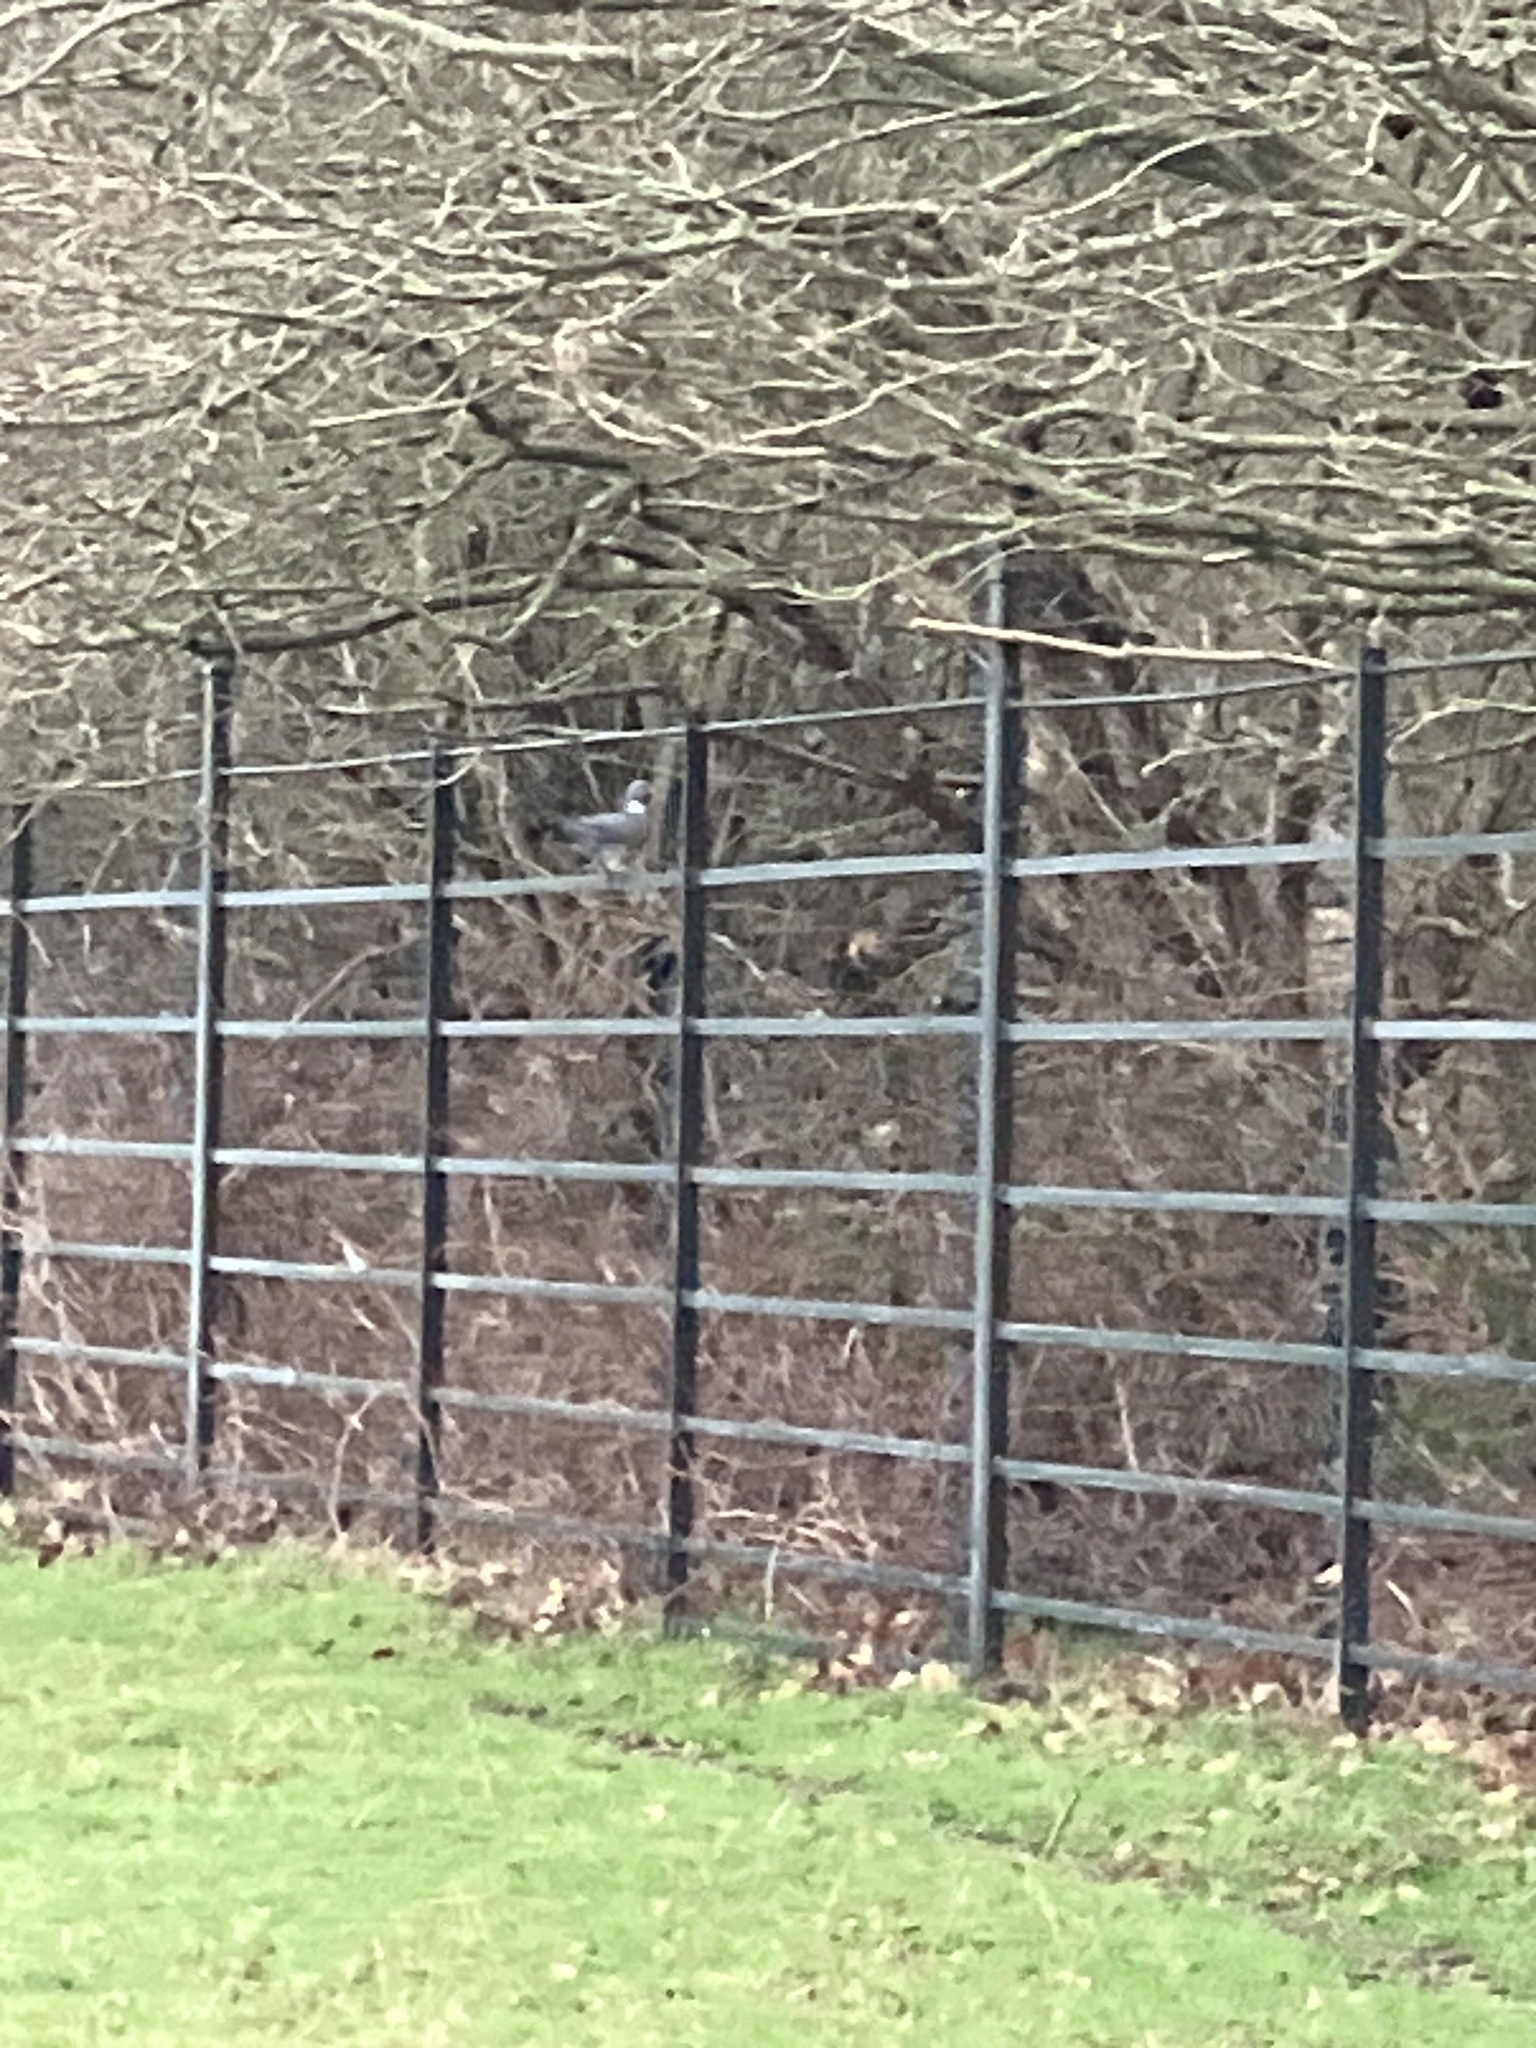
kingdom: Animalia
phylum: Chordata
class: Aves
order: Columbiformes
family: Columbidae
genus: Columba
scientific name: Columba palumbus
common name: Common wood pigeon
